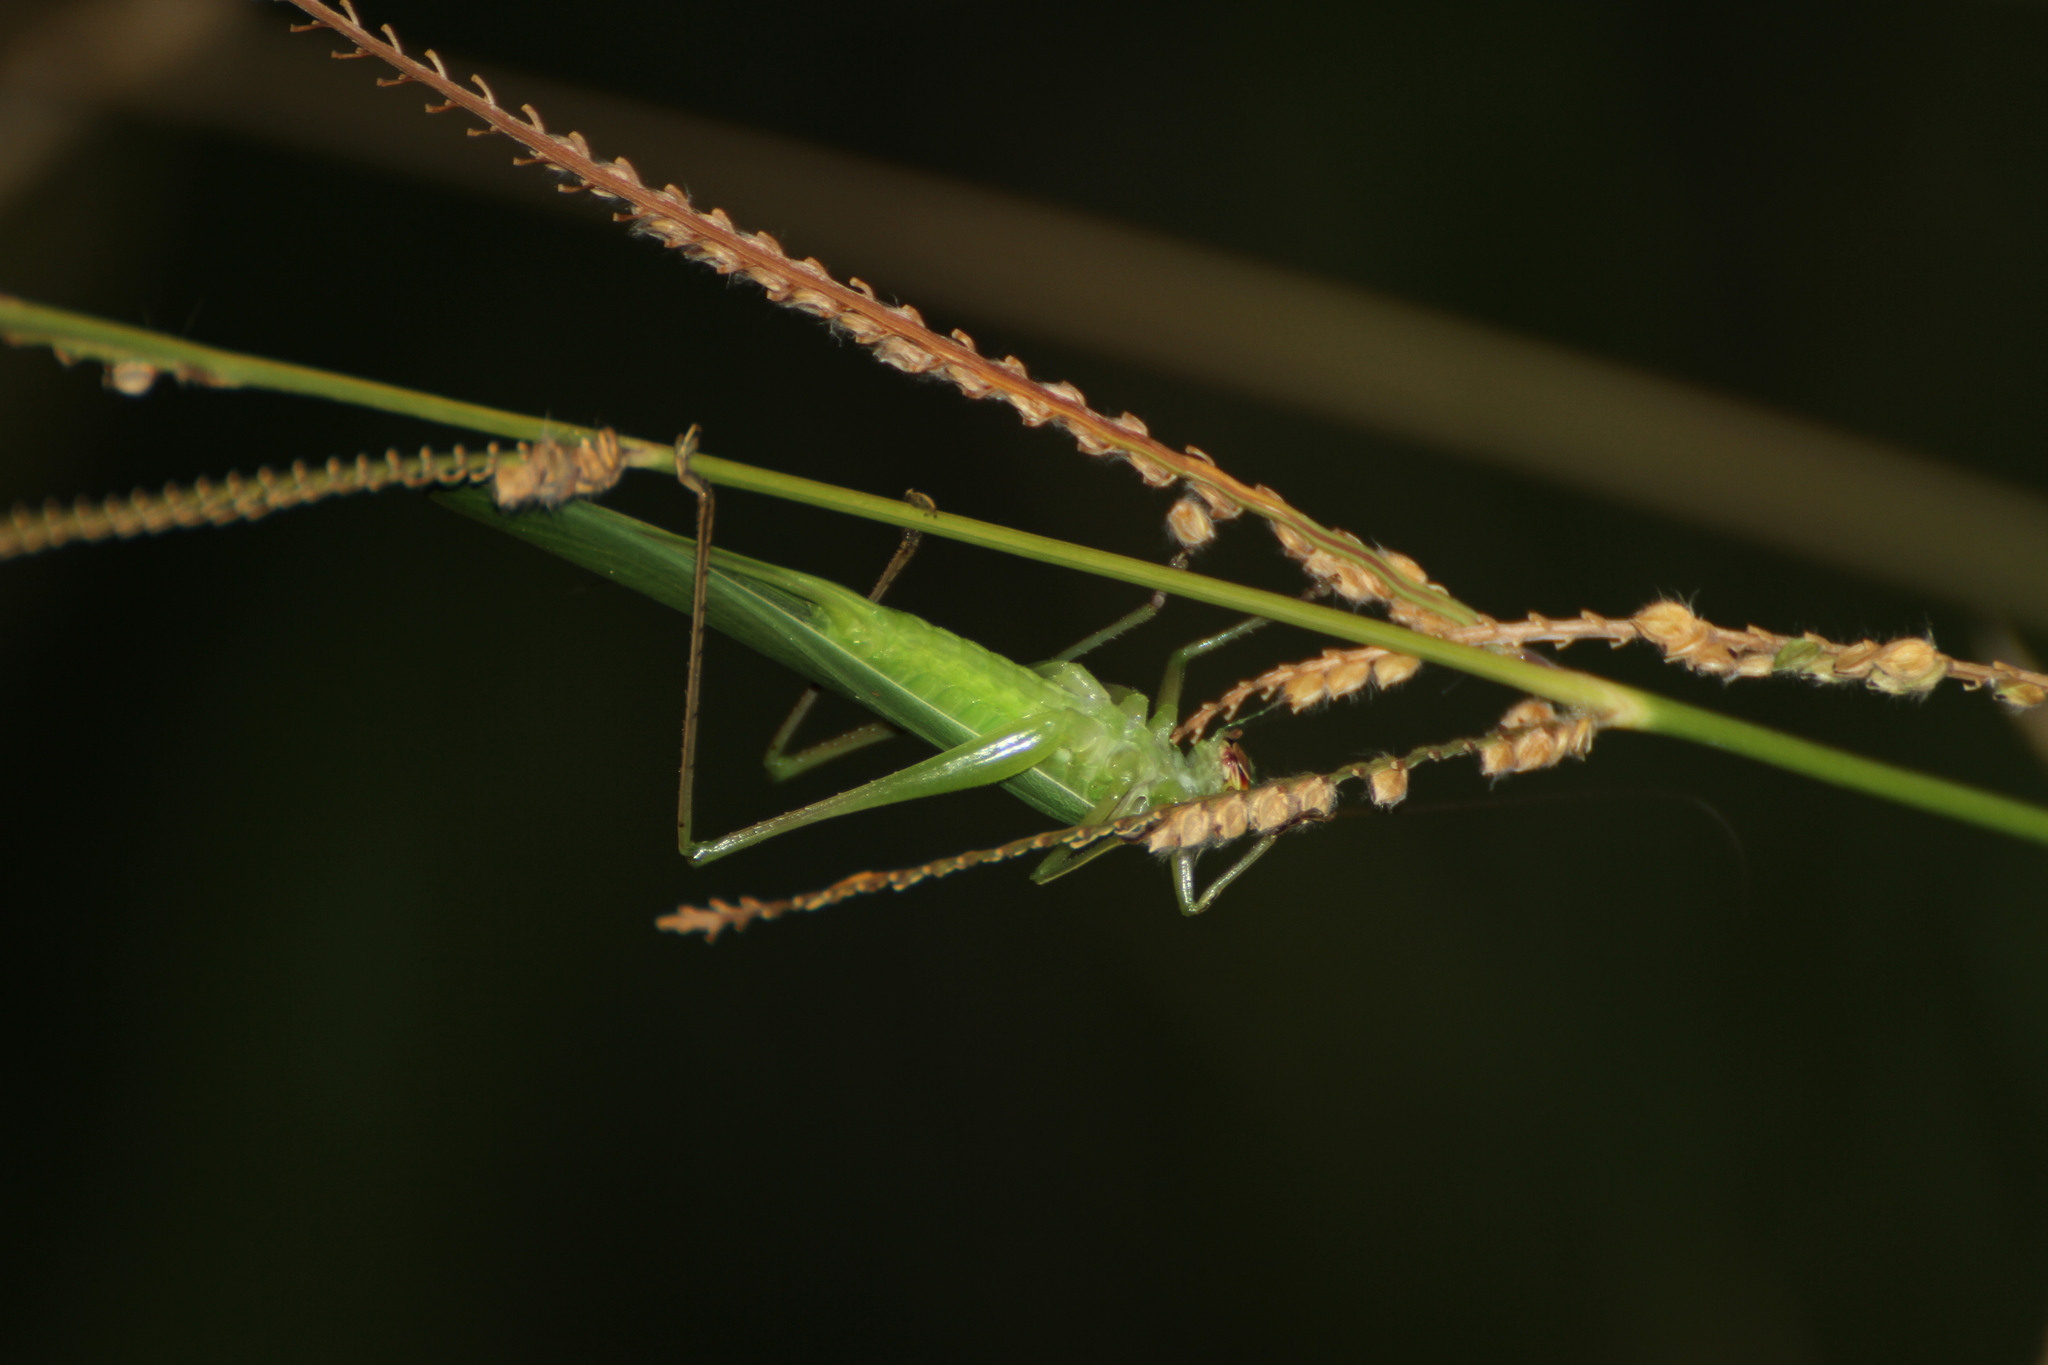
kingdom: Animalia
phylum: Arthropoda
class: Insecta
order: Orthoptera
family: Tettigoniidae
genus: Ruspolia
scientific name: Ruspolia nitidula
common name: Large conehead
